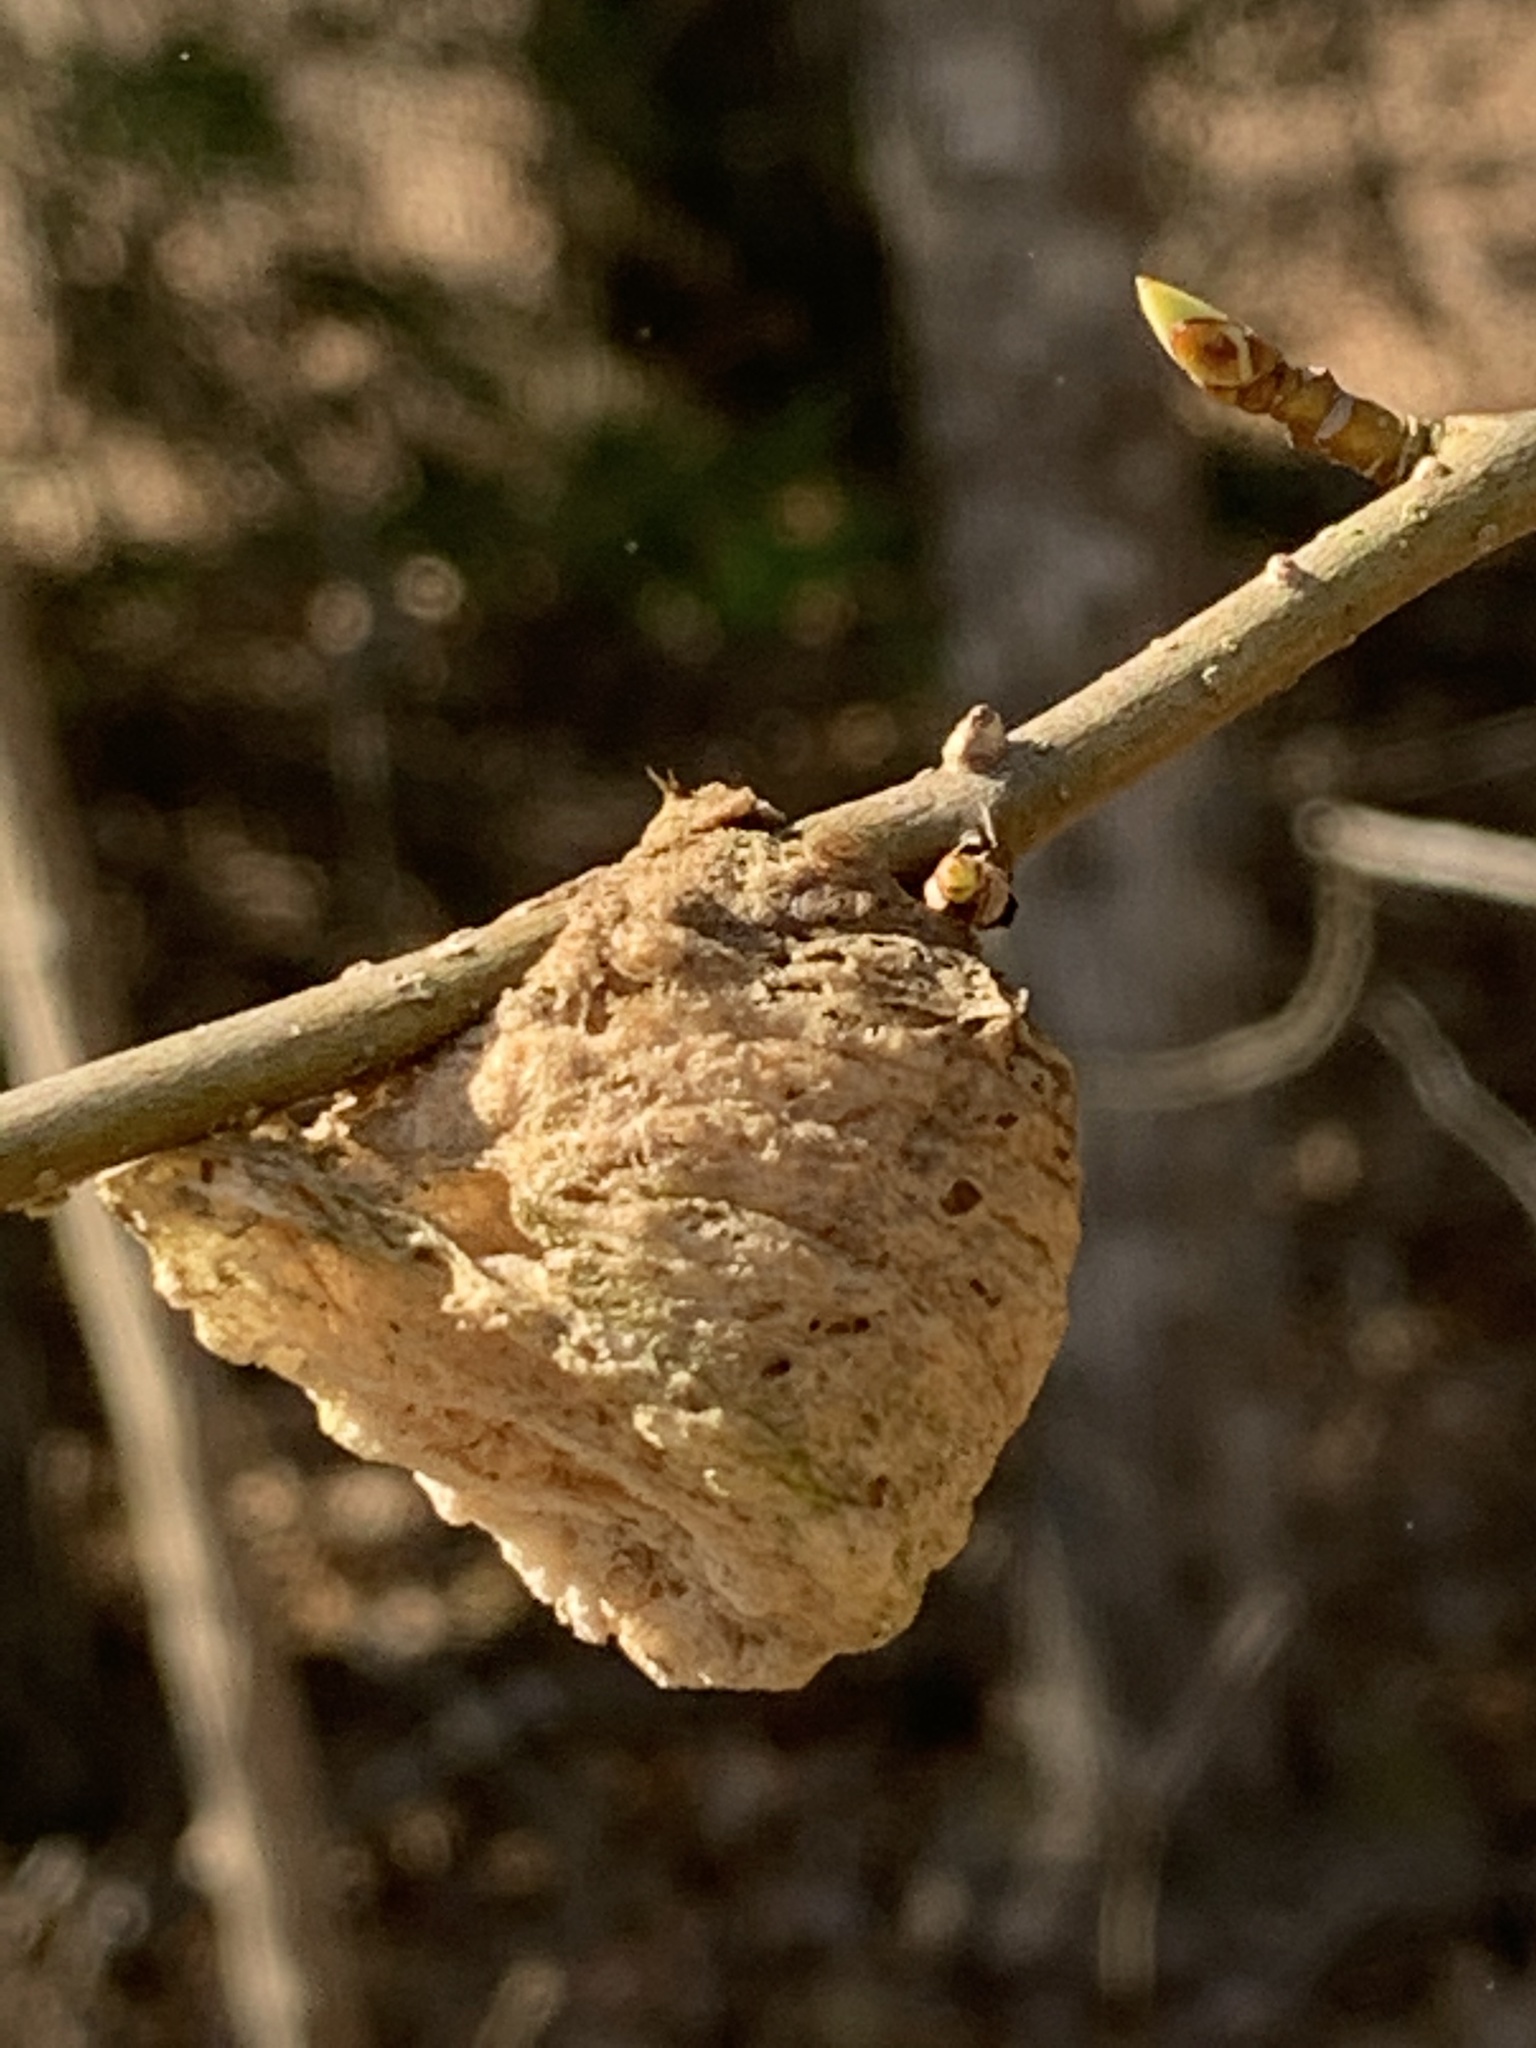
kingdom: Animalia
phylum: Arthropoda
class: Insecta
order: Mantodea
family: Mantidae
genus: Tenodera
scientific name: Tenodera sinensis
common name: Chinese mantis
